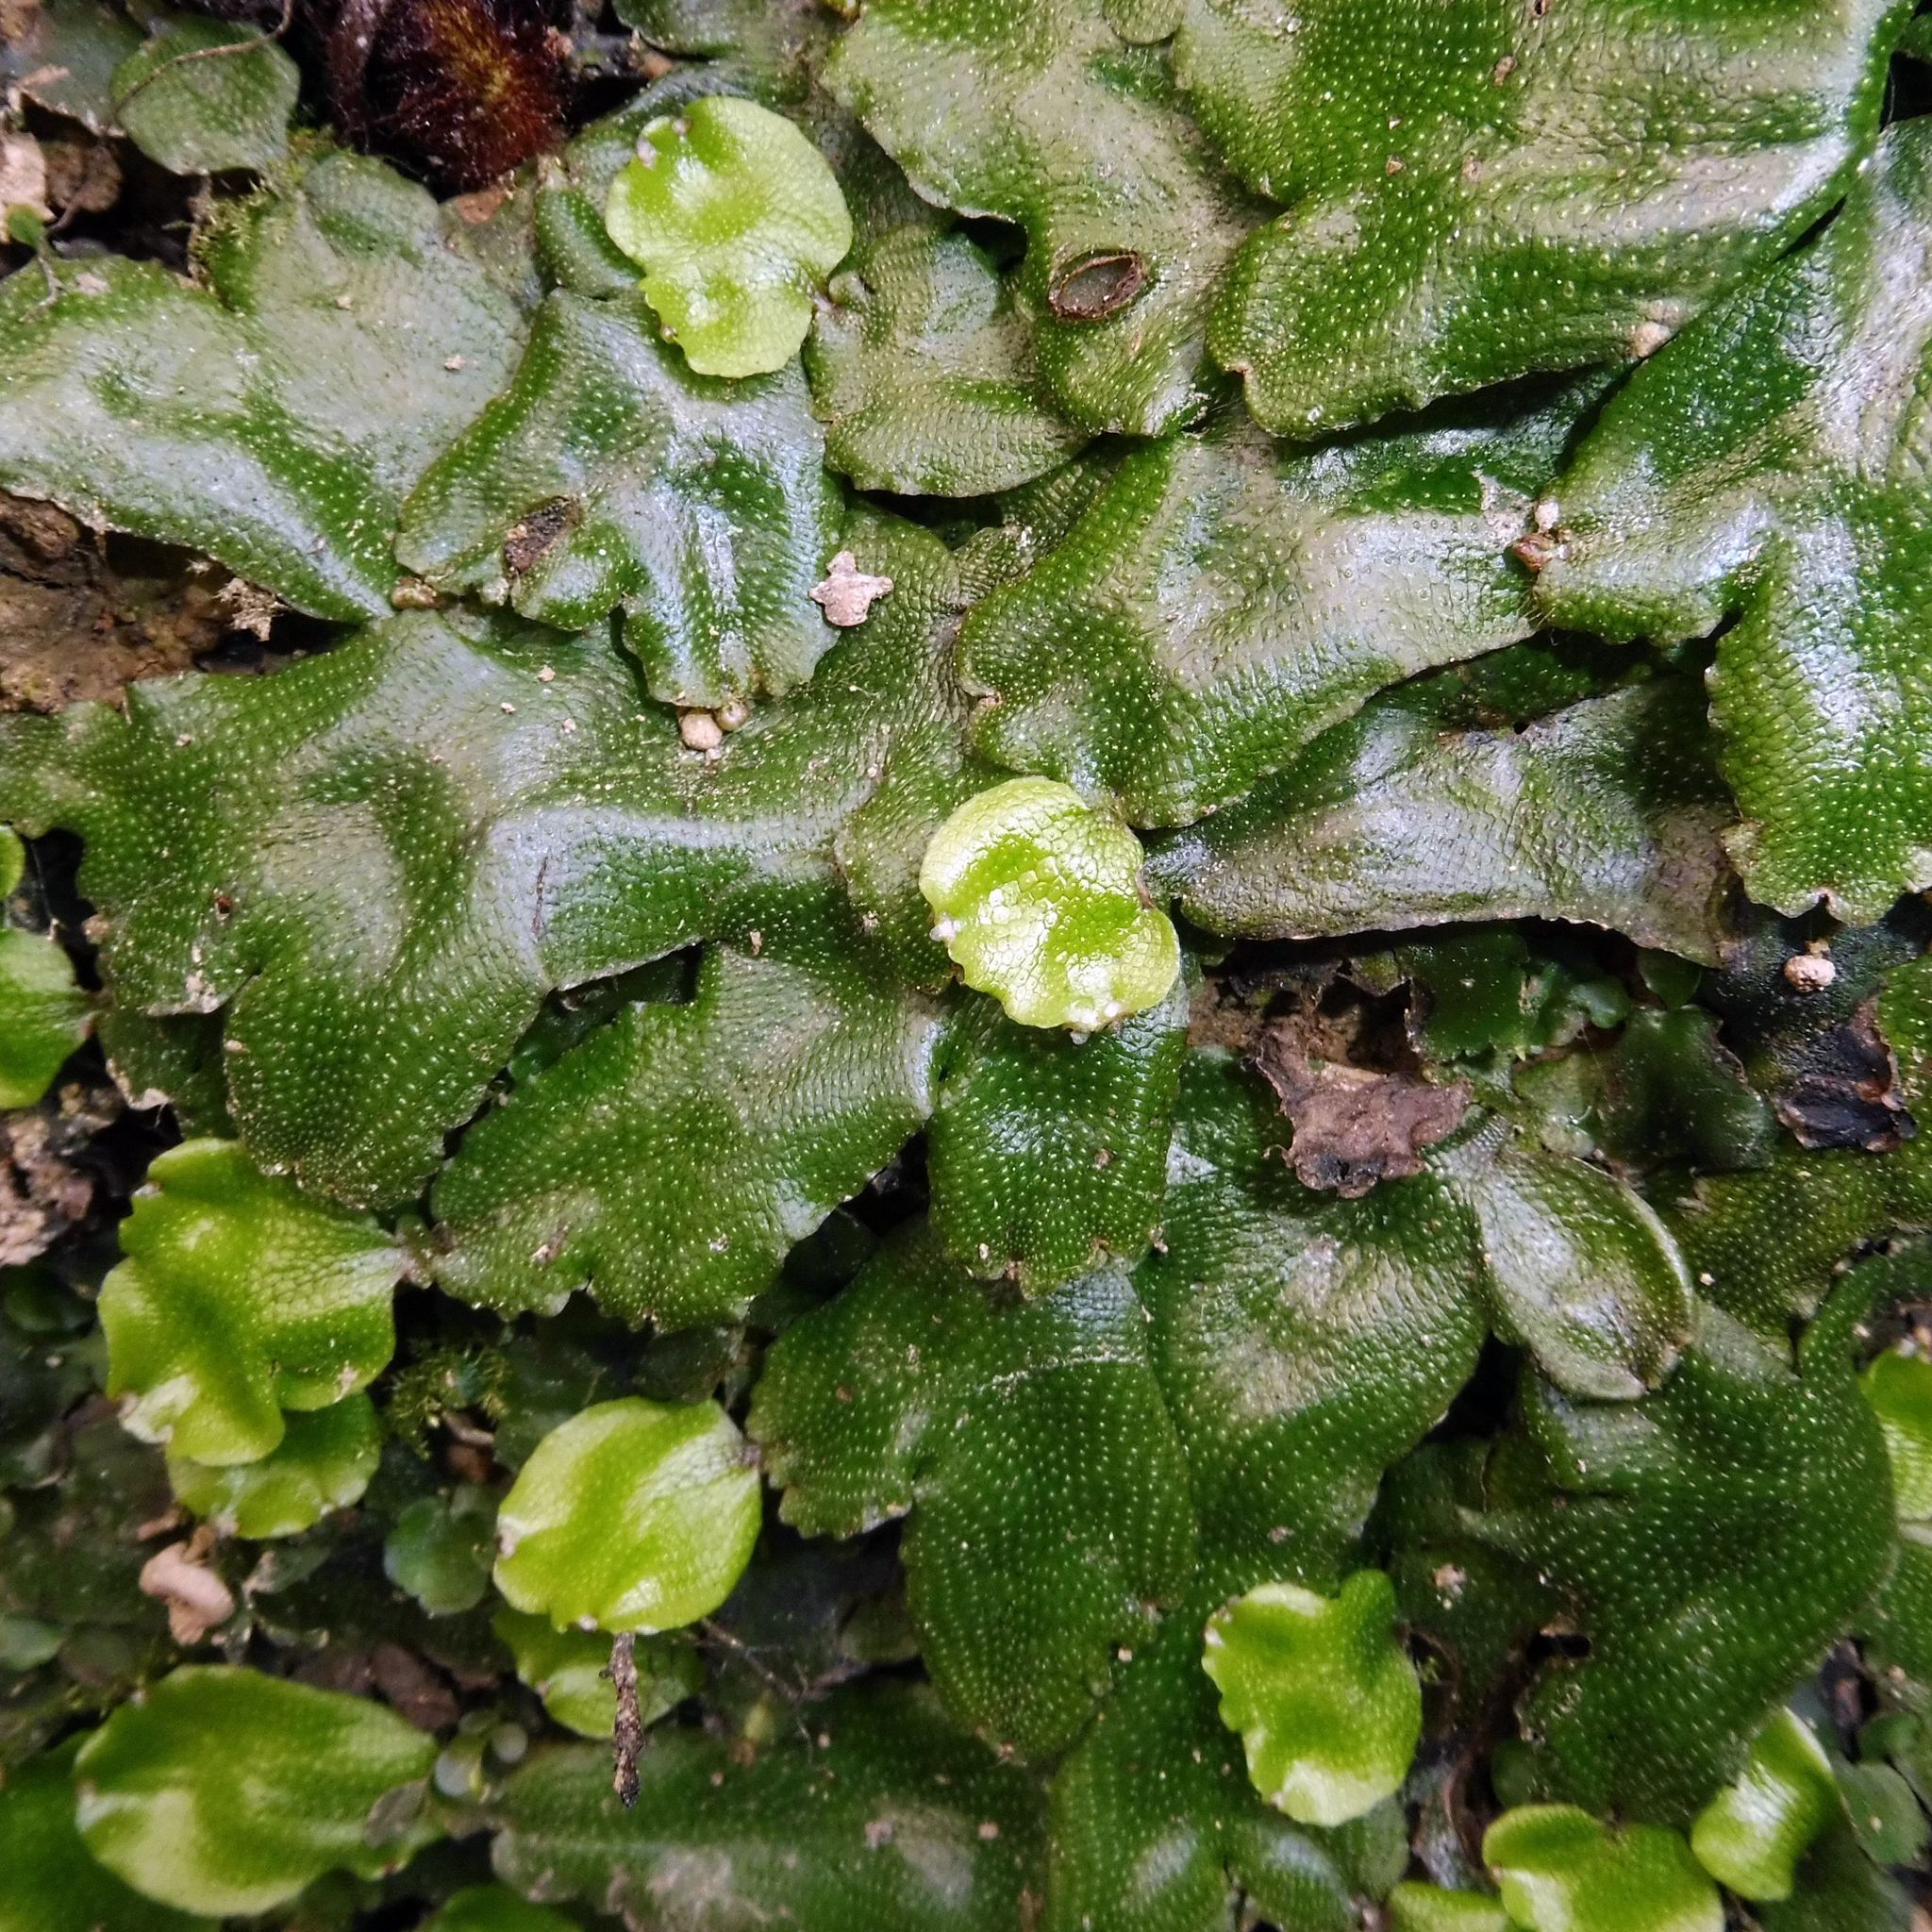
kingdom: Plantae
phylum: Marchantiophyta
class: Marchantiopsida
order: Marchantiales
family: Conocephalaceae
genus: Conocephalum
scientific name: Conocephalum conicum
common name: Great scented liverwort
